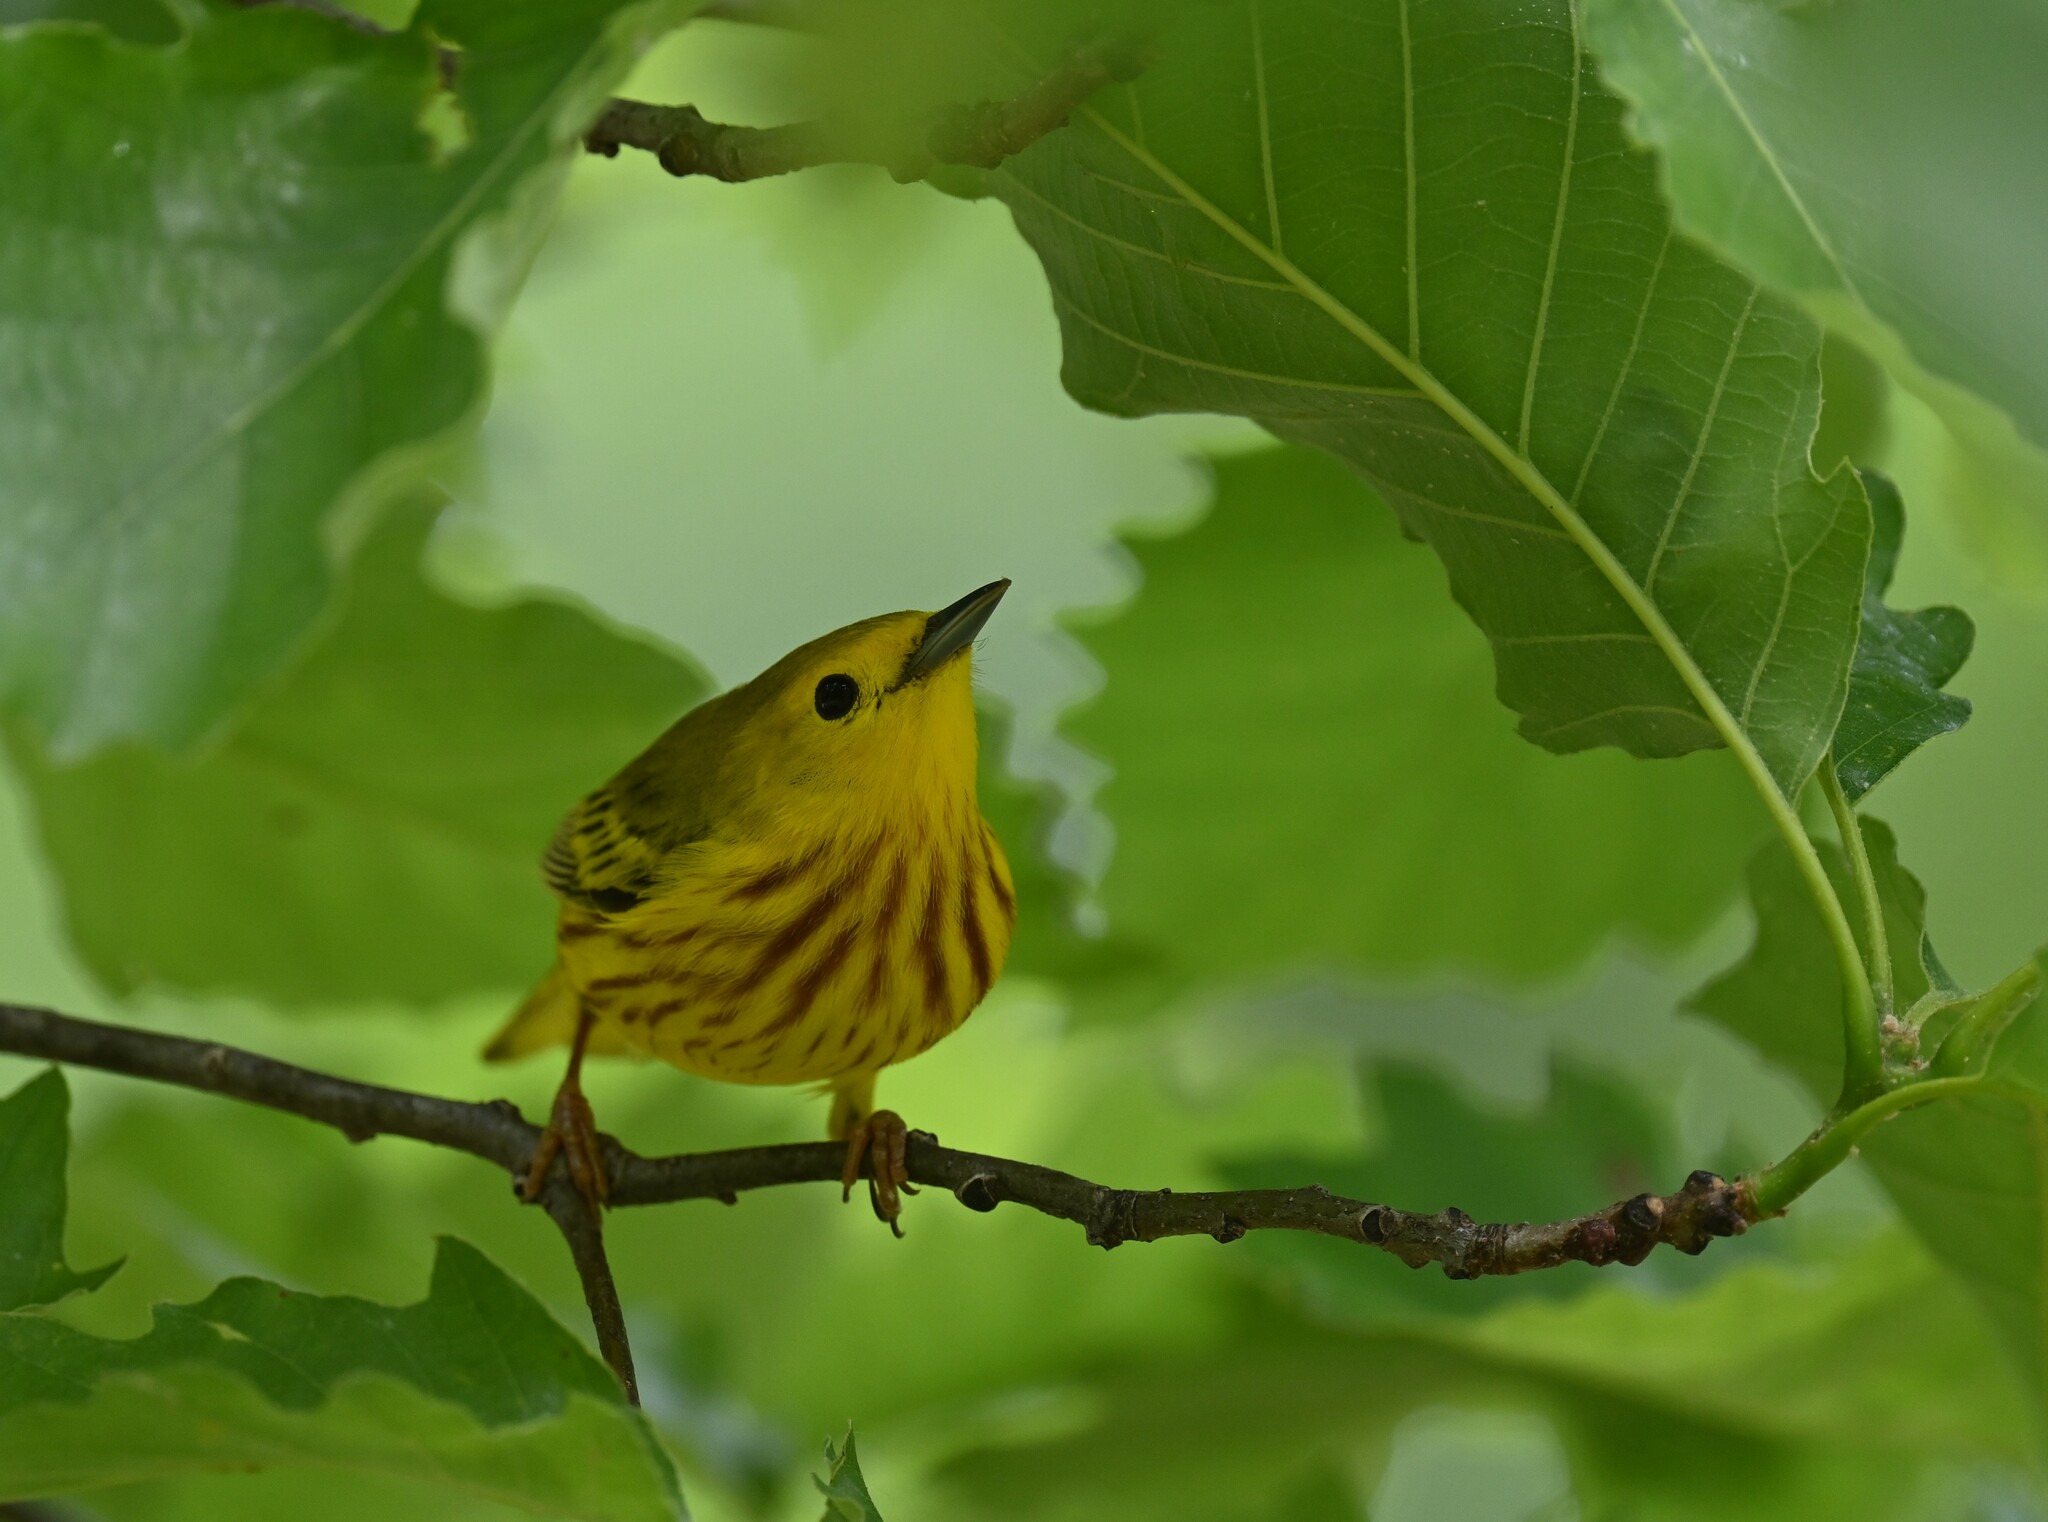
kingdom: Animalia
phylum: Chordata
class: Aves
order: Passeriformes
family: Parulidae
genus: Setophaga
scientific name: Setophaga petechia
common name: Yellow warbler
